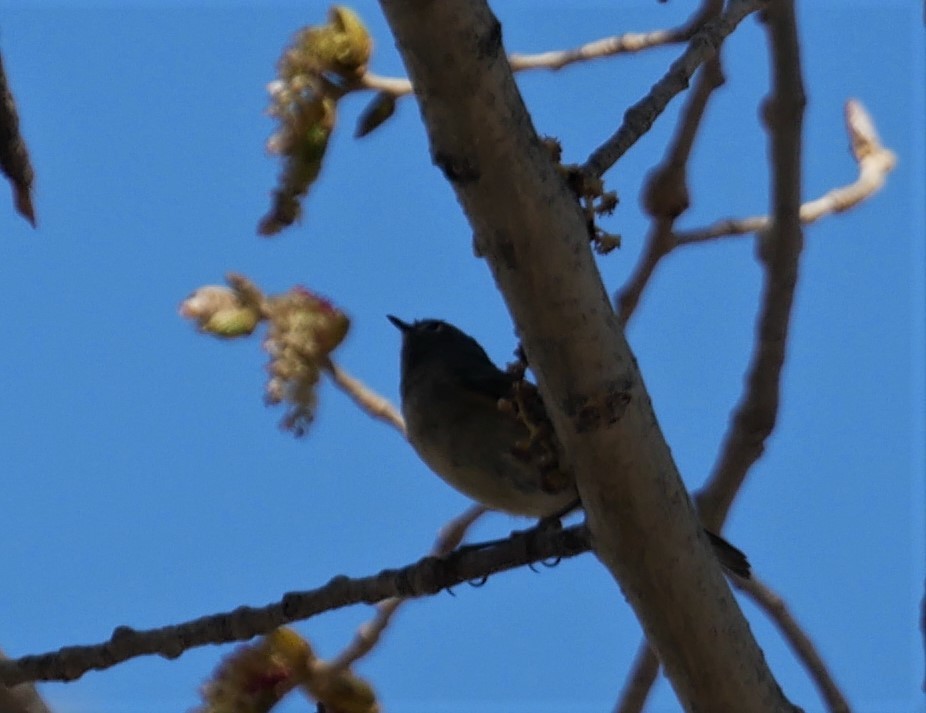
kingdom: Animalia
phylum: Chordata
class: Aves
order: Passeriformes
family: Regulidae
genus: Regulus
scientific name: Regulus calendula
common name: Ruby-crowned kinglet
